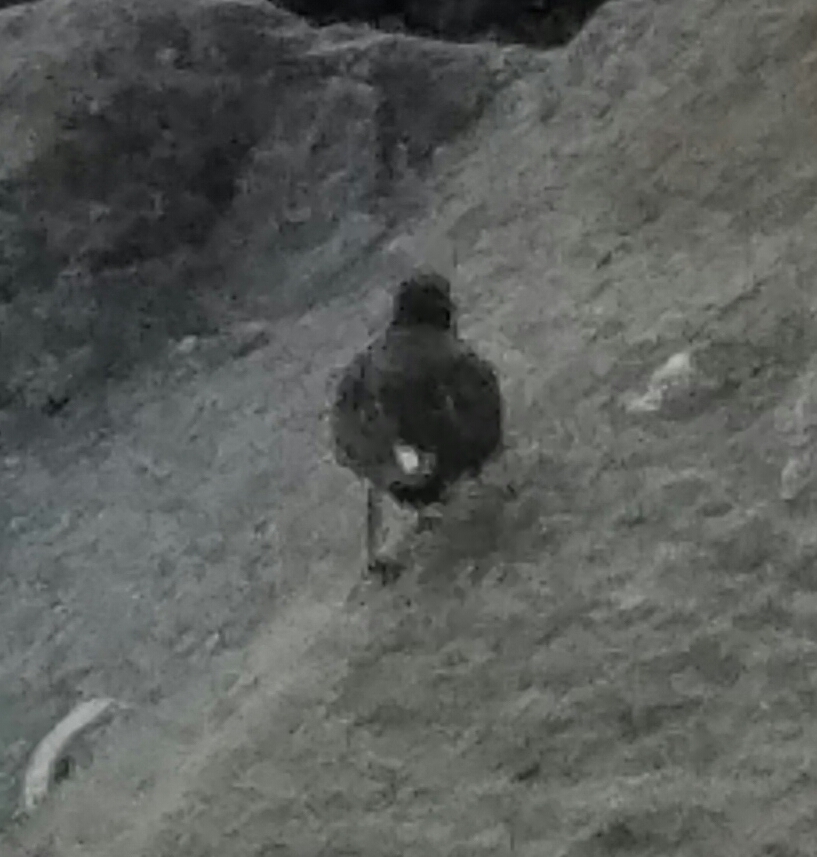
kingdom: Animalia
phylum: Chordata
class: Aves
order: Charadriiformes
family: Scolopacidae
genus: Calidris
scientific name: Calidris virgata
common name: Surfbird
